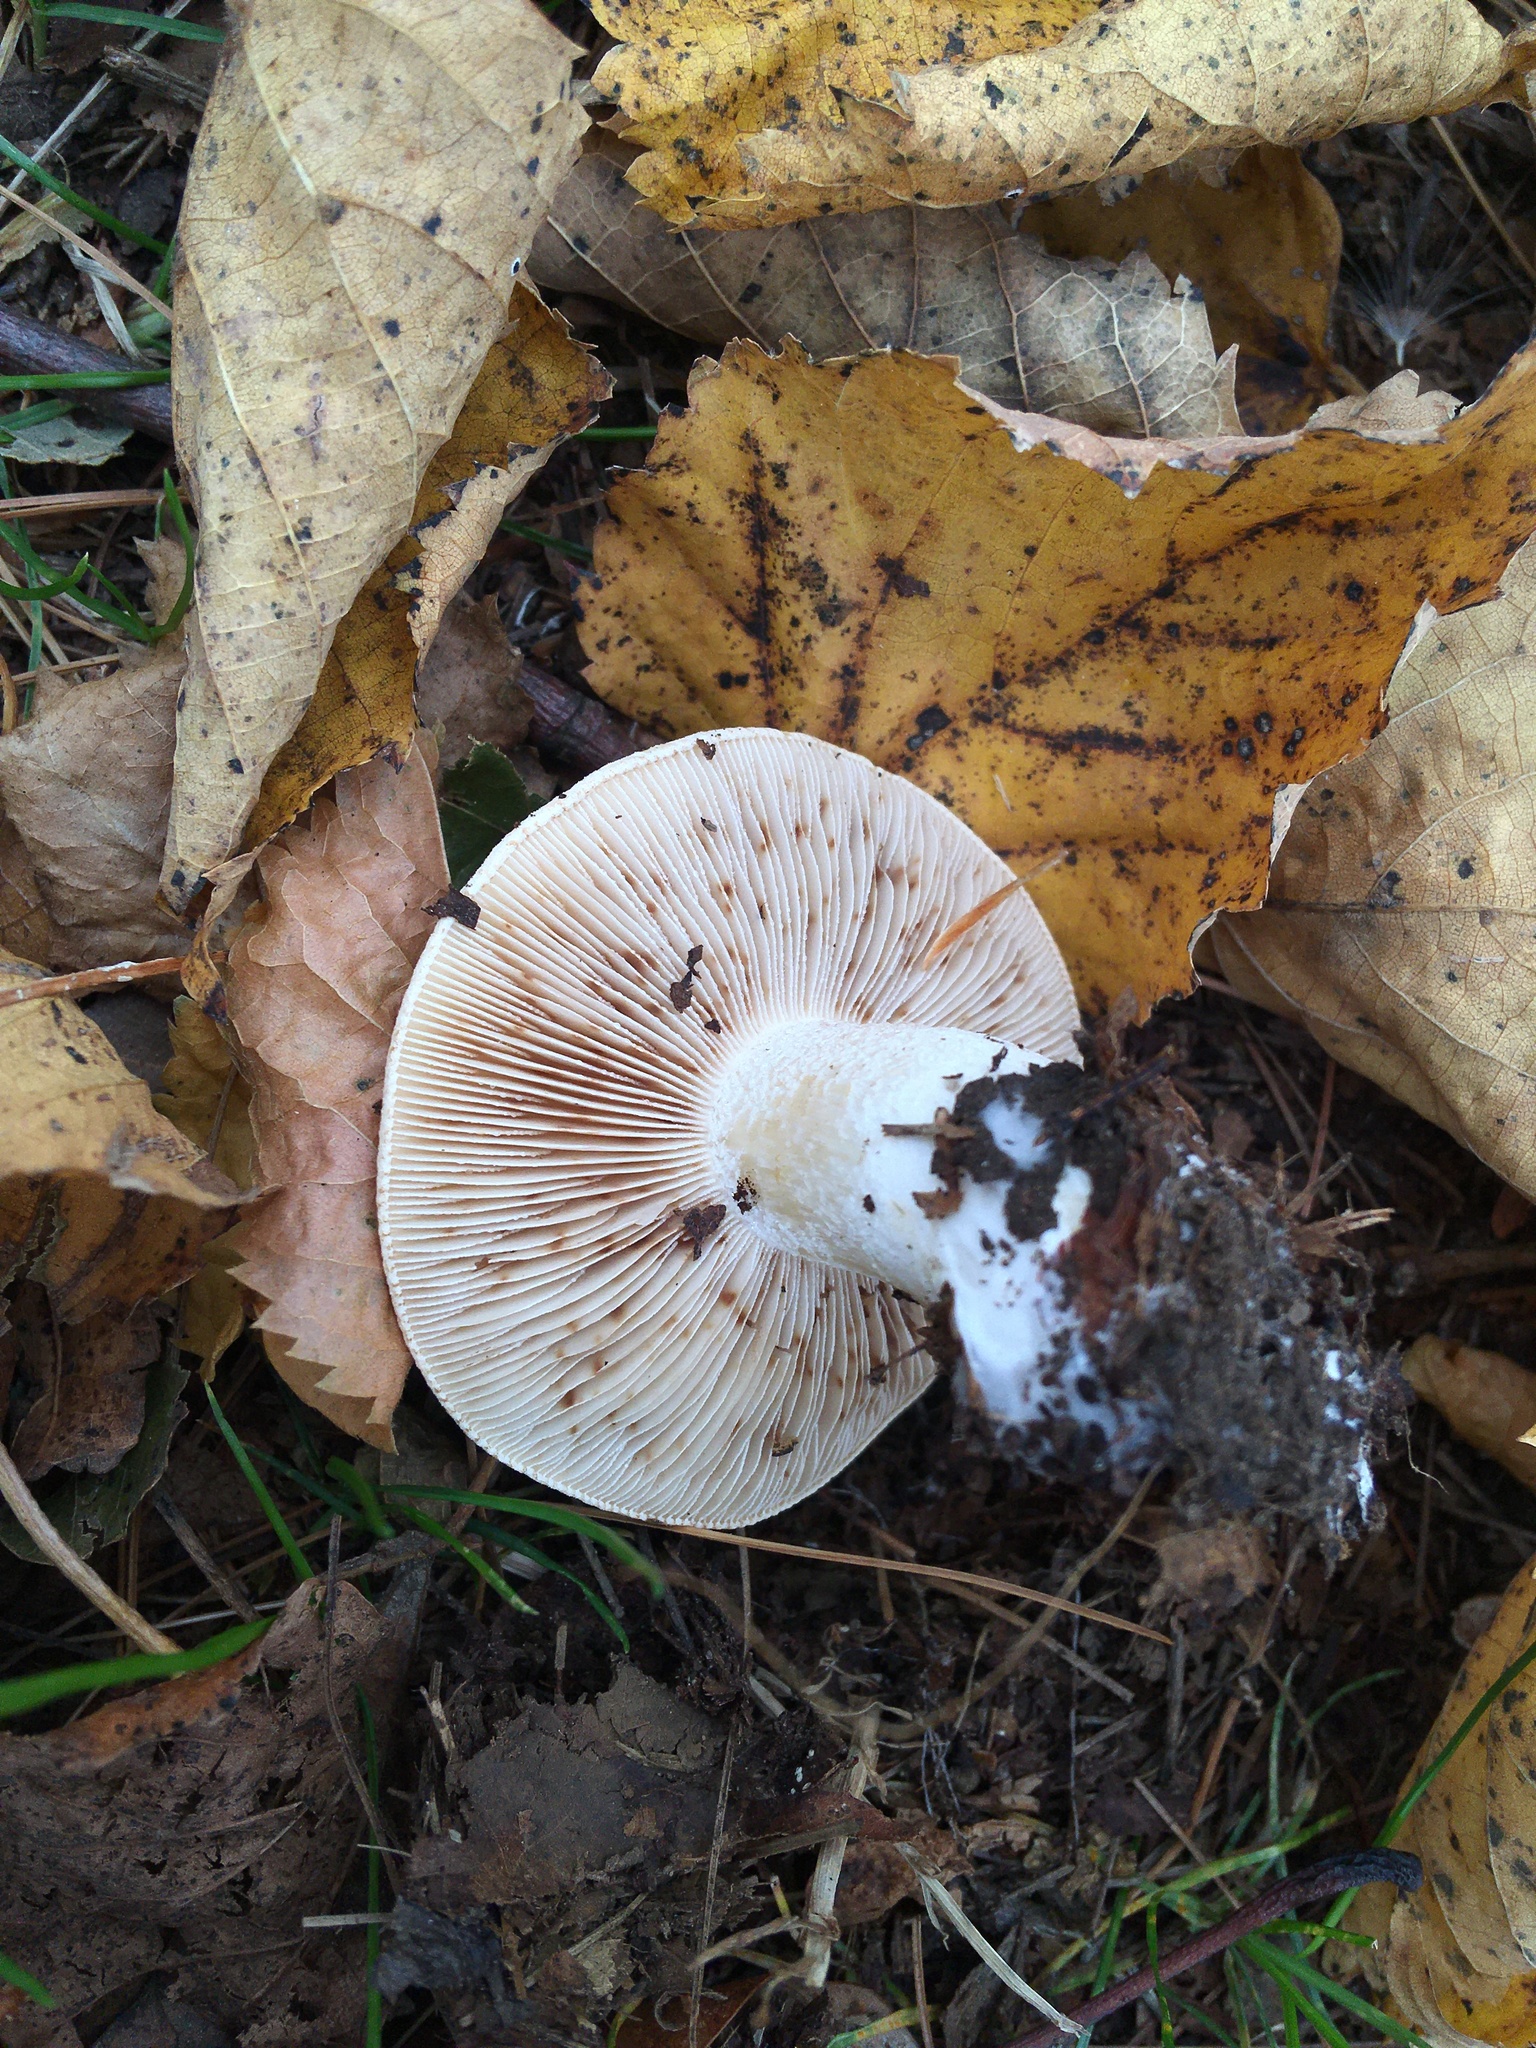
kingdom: Fungi
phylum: Basidiomycota
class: Agaricomycetes
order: Agaricales
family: Hymenogastraceae
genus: Hebeloma
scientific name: Hebeloma crustuliniforme
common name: Poison pie
